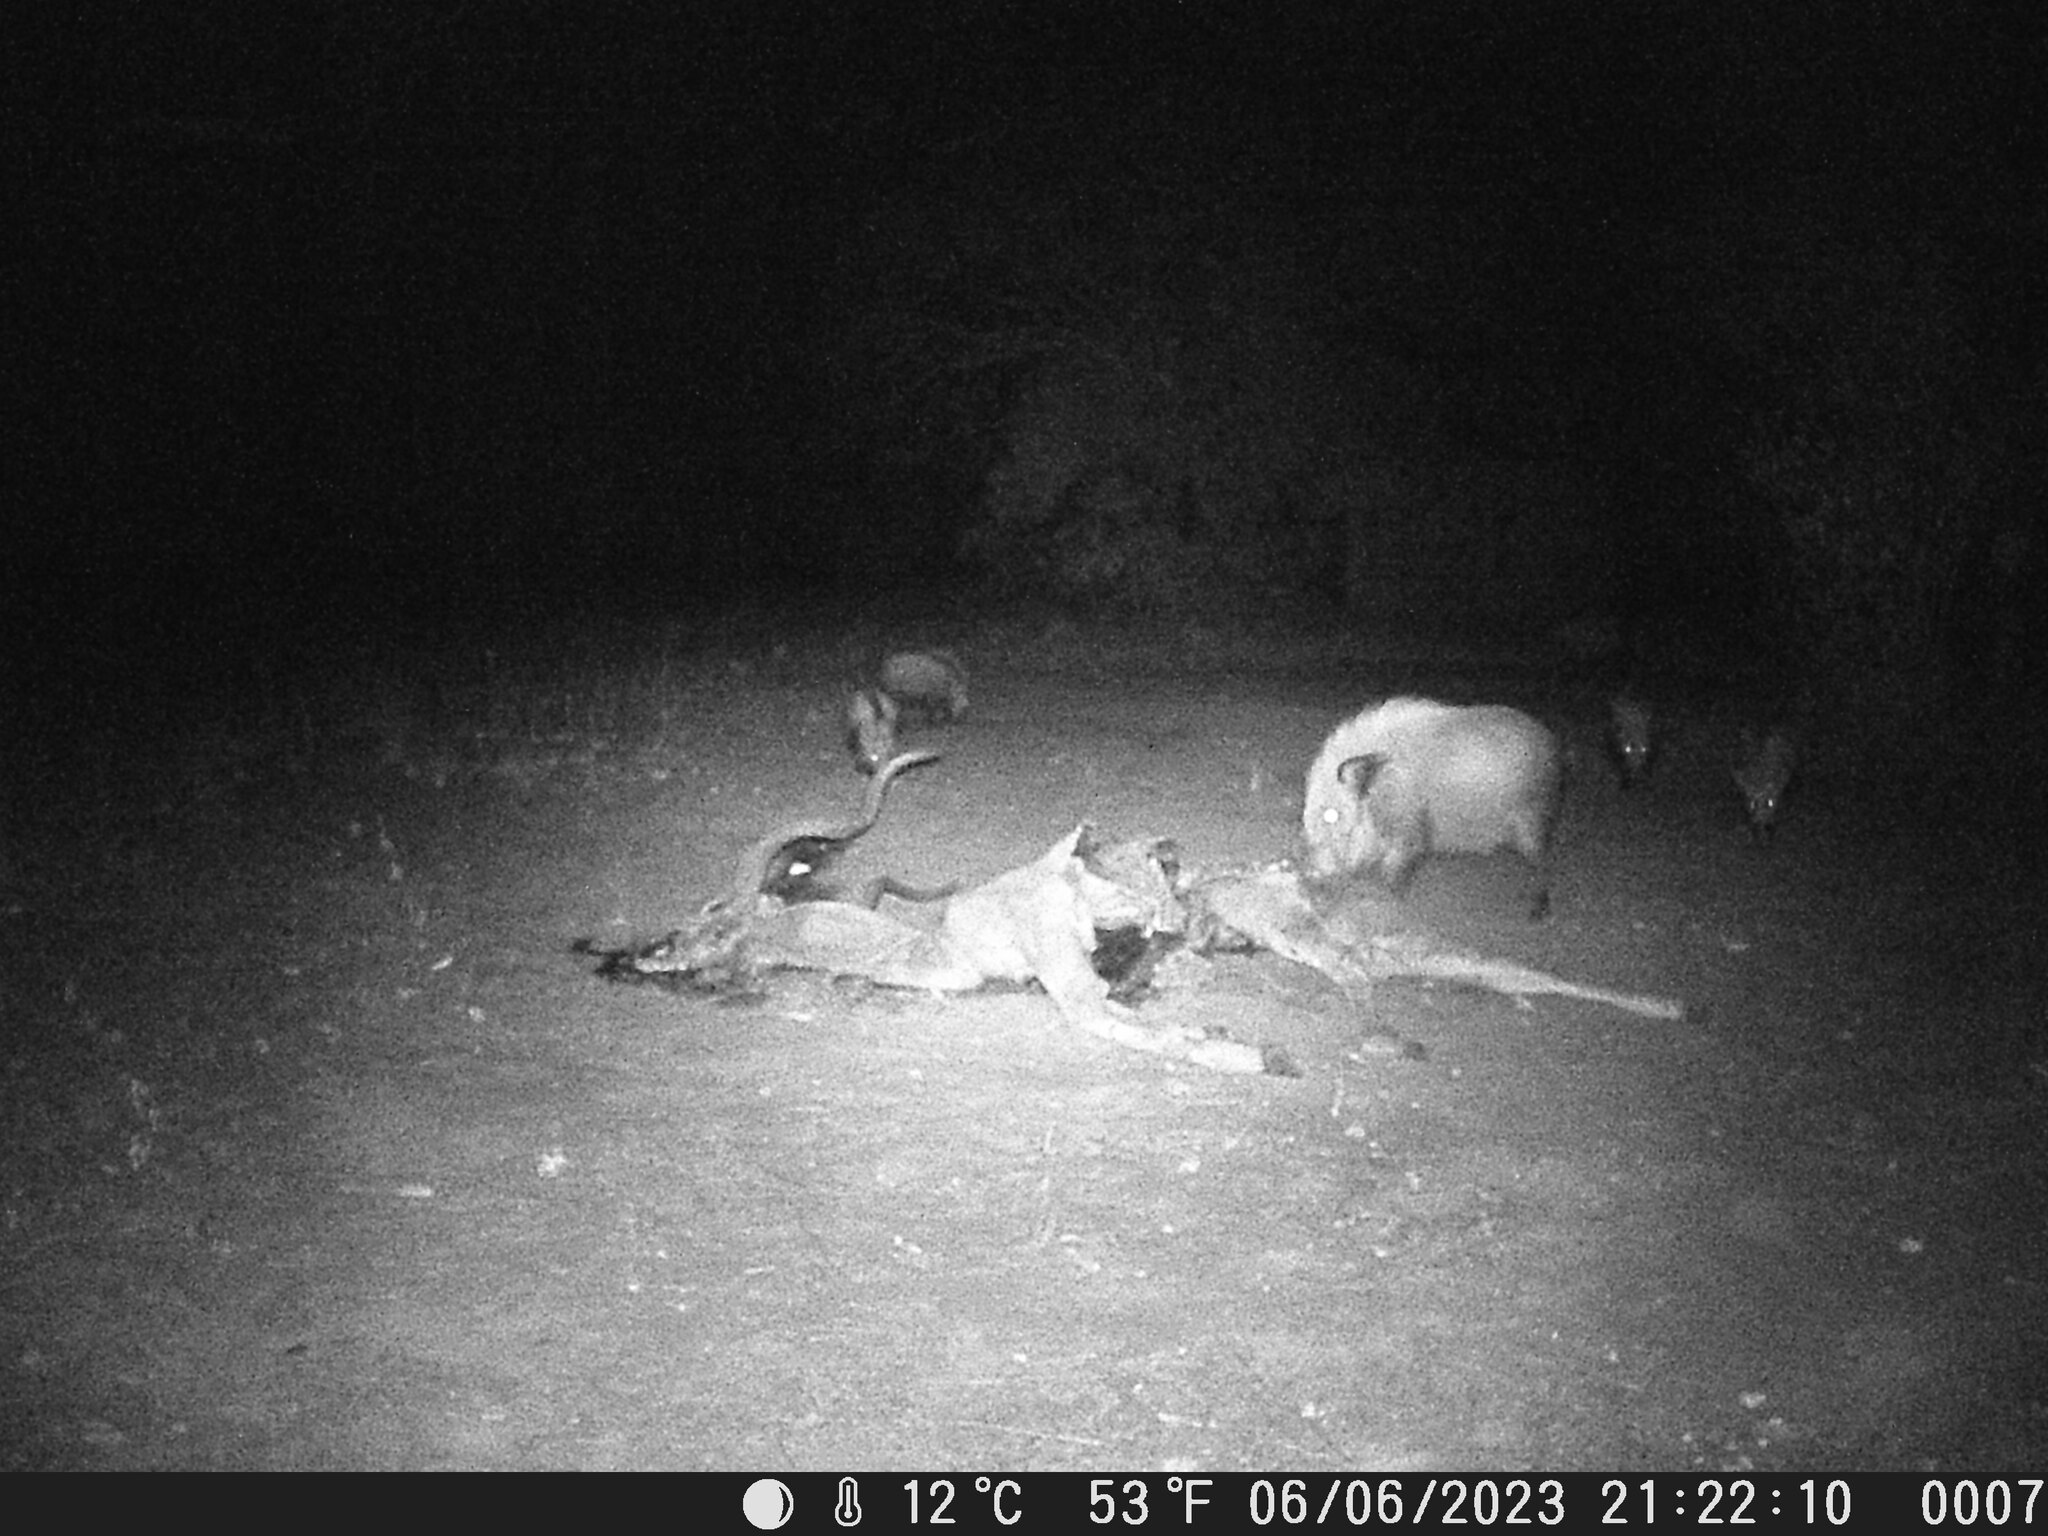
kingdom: Animalia
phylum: Chordata
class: Mammalia
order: Artiodactyla
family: Suidae
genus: Potamochoerus
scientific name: Potamochoerus larvatus
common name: Bushpig
